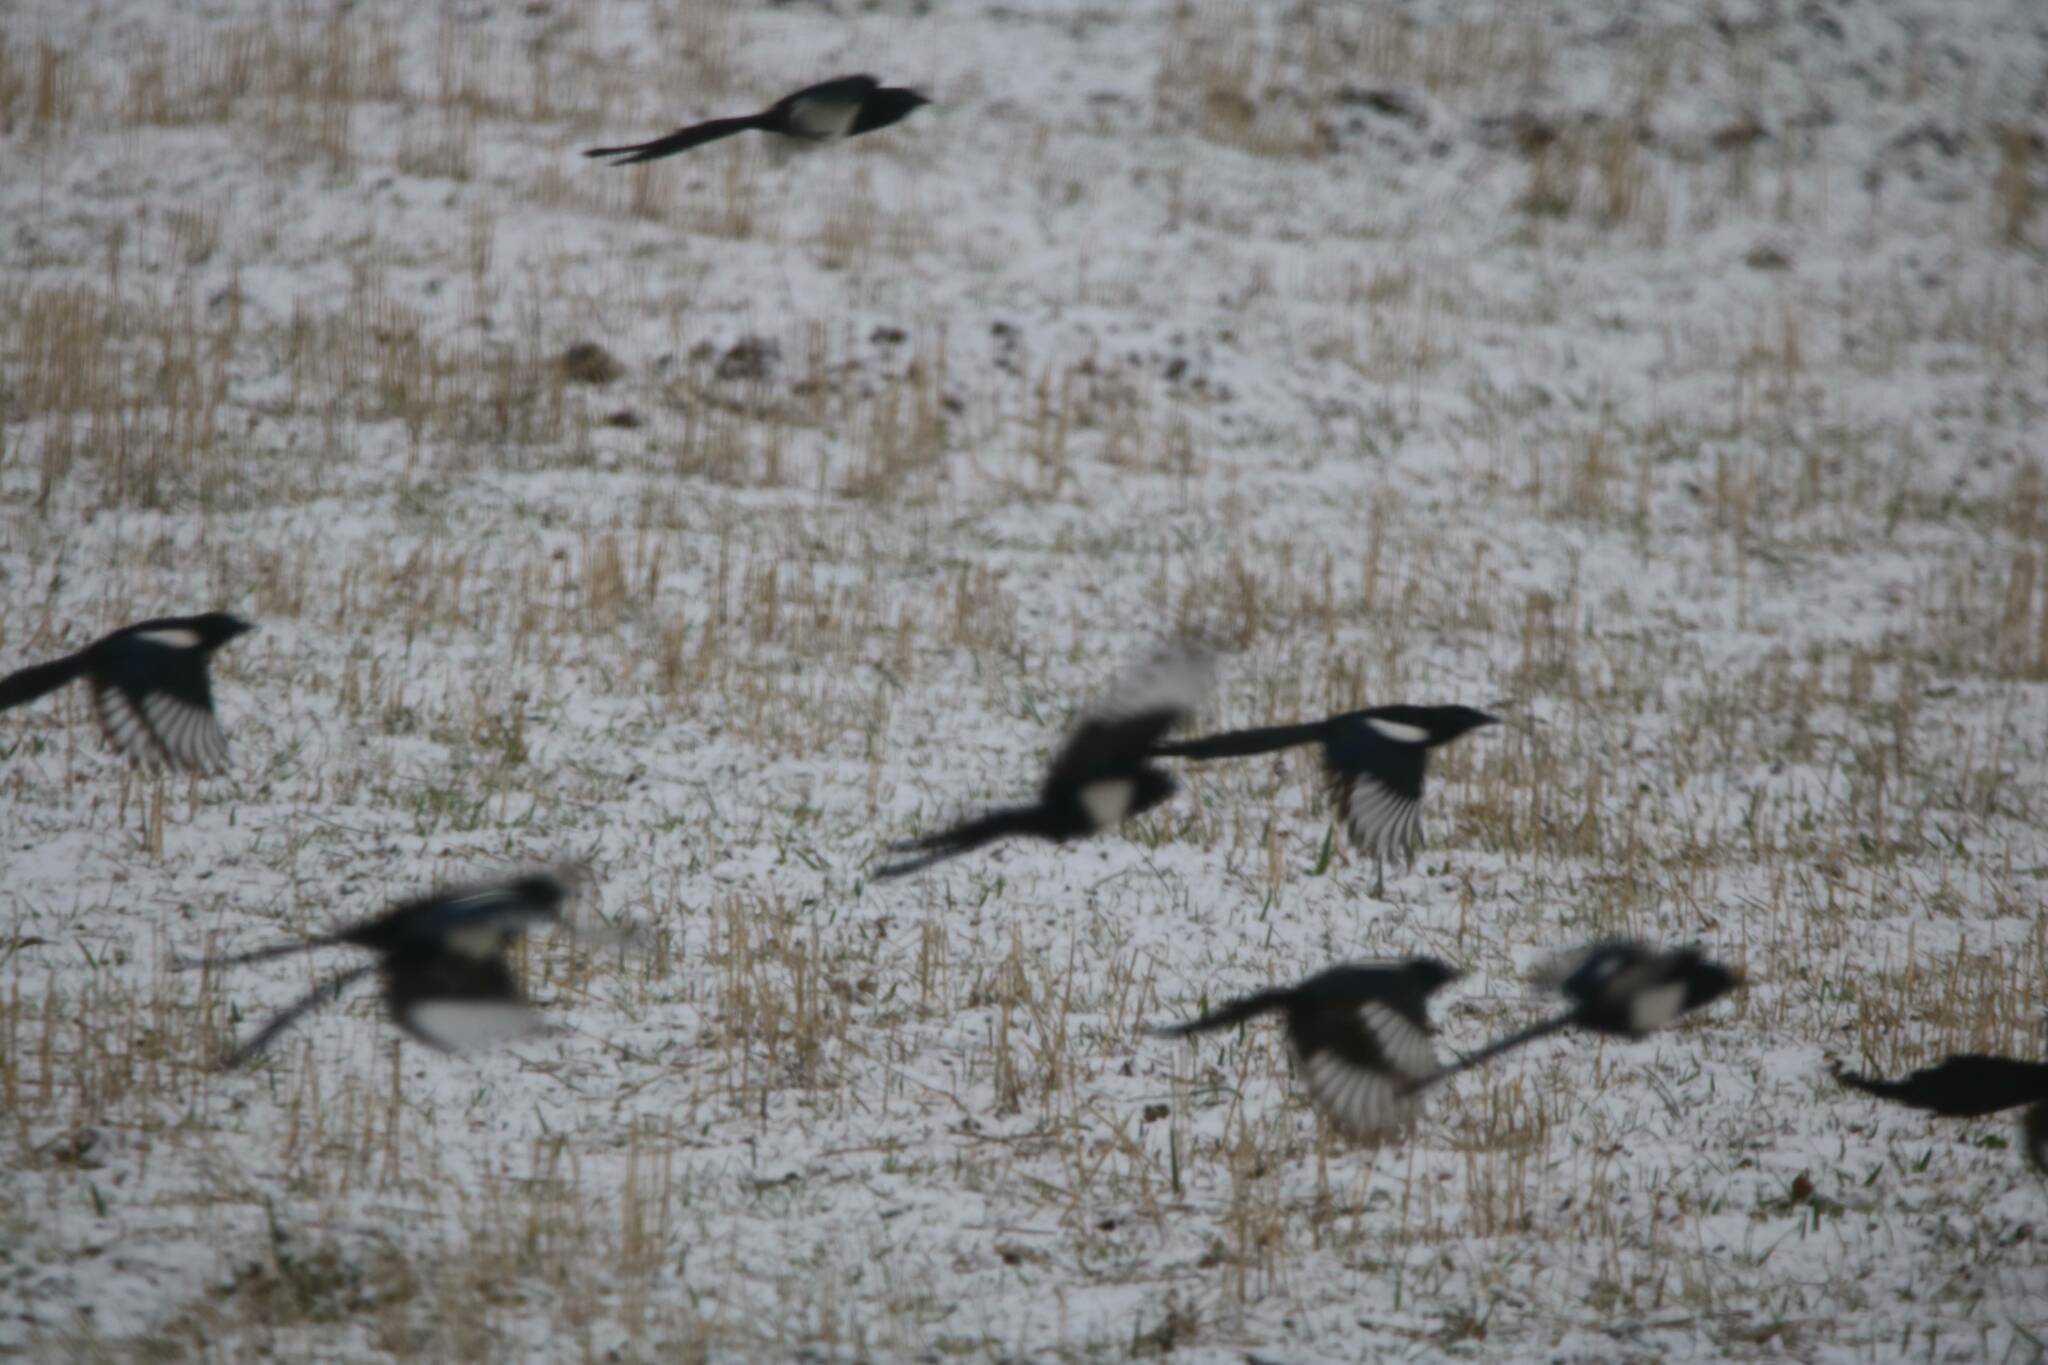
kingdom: Animalia
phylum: Chordata
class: Aves
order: Passeriformes
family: Corvidae
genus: Pica
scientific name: Pica mauritanica
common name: Maghreb magpie
